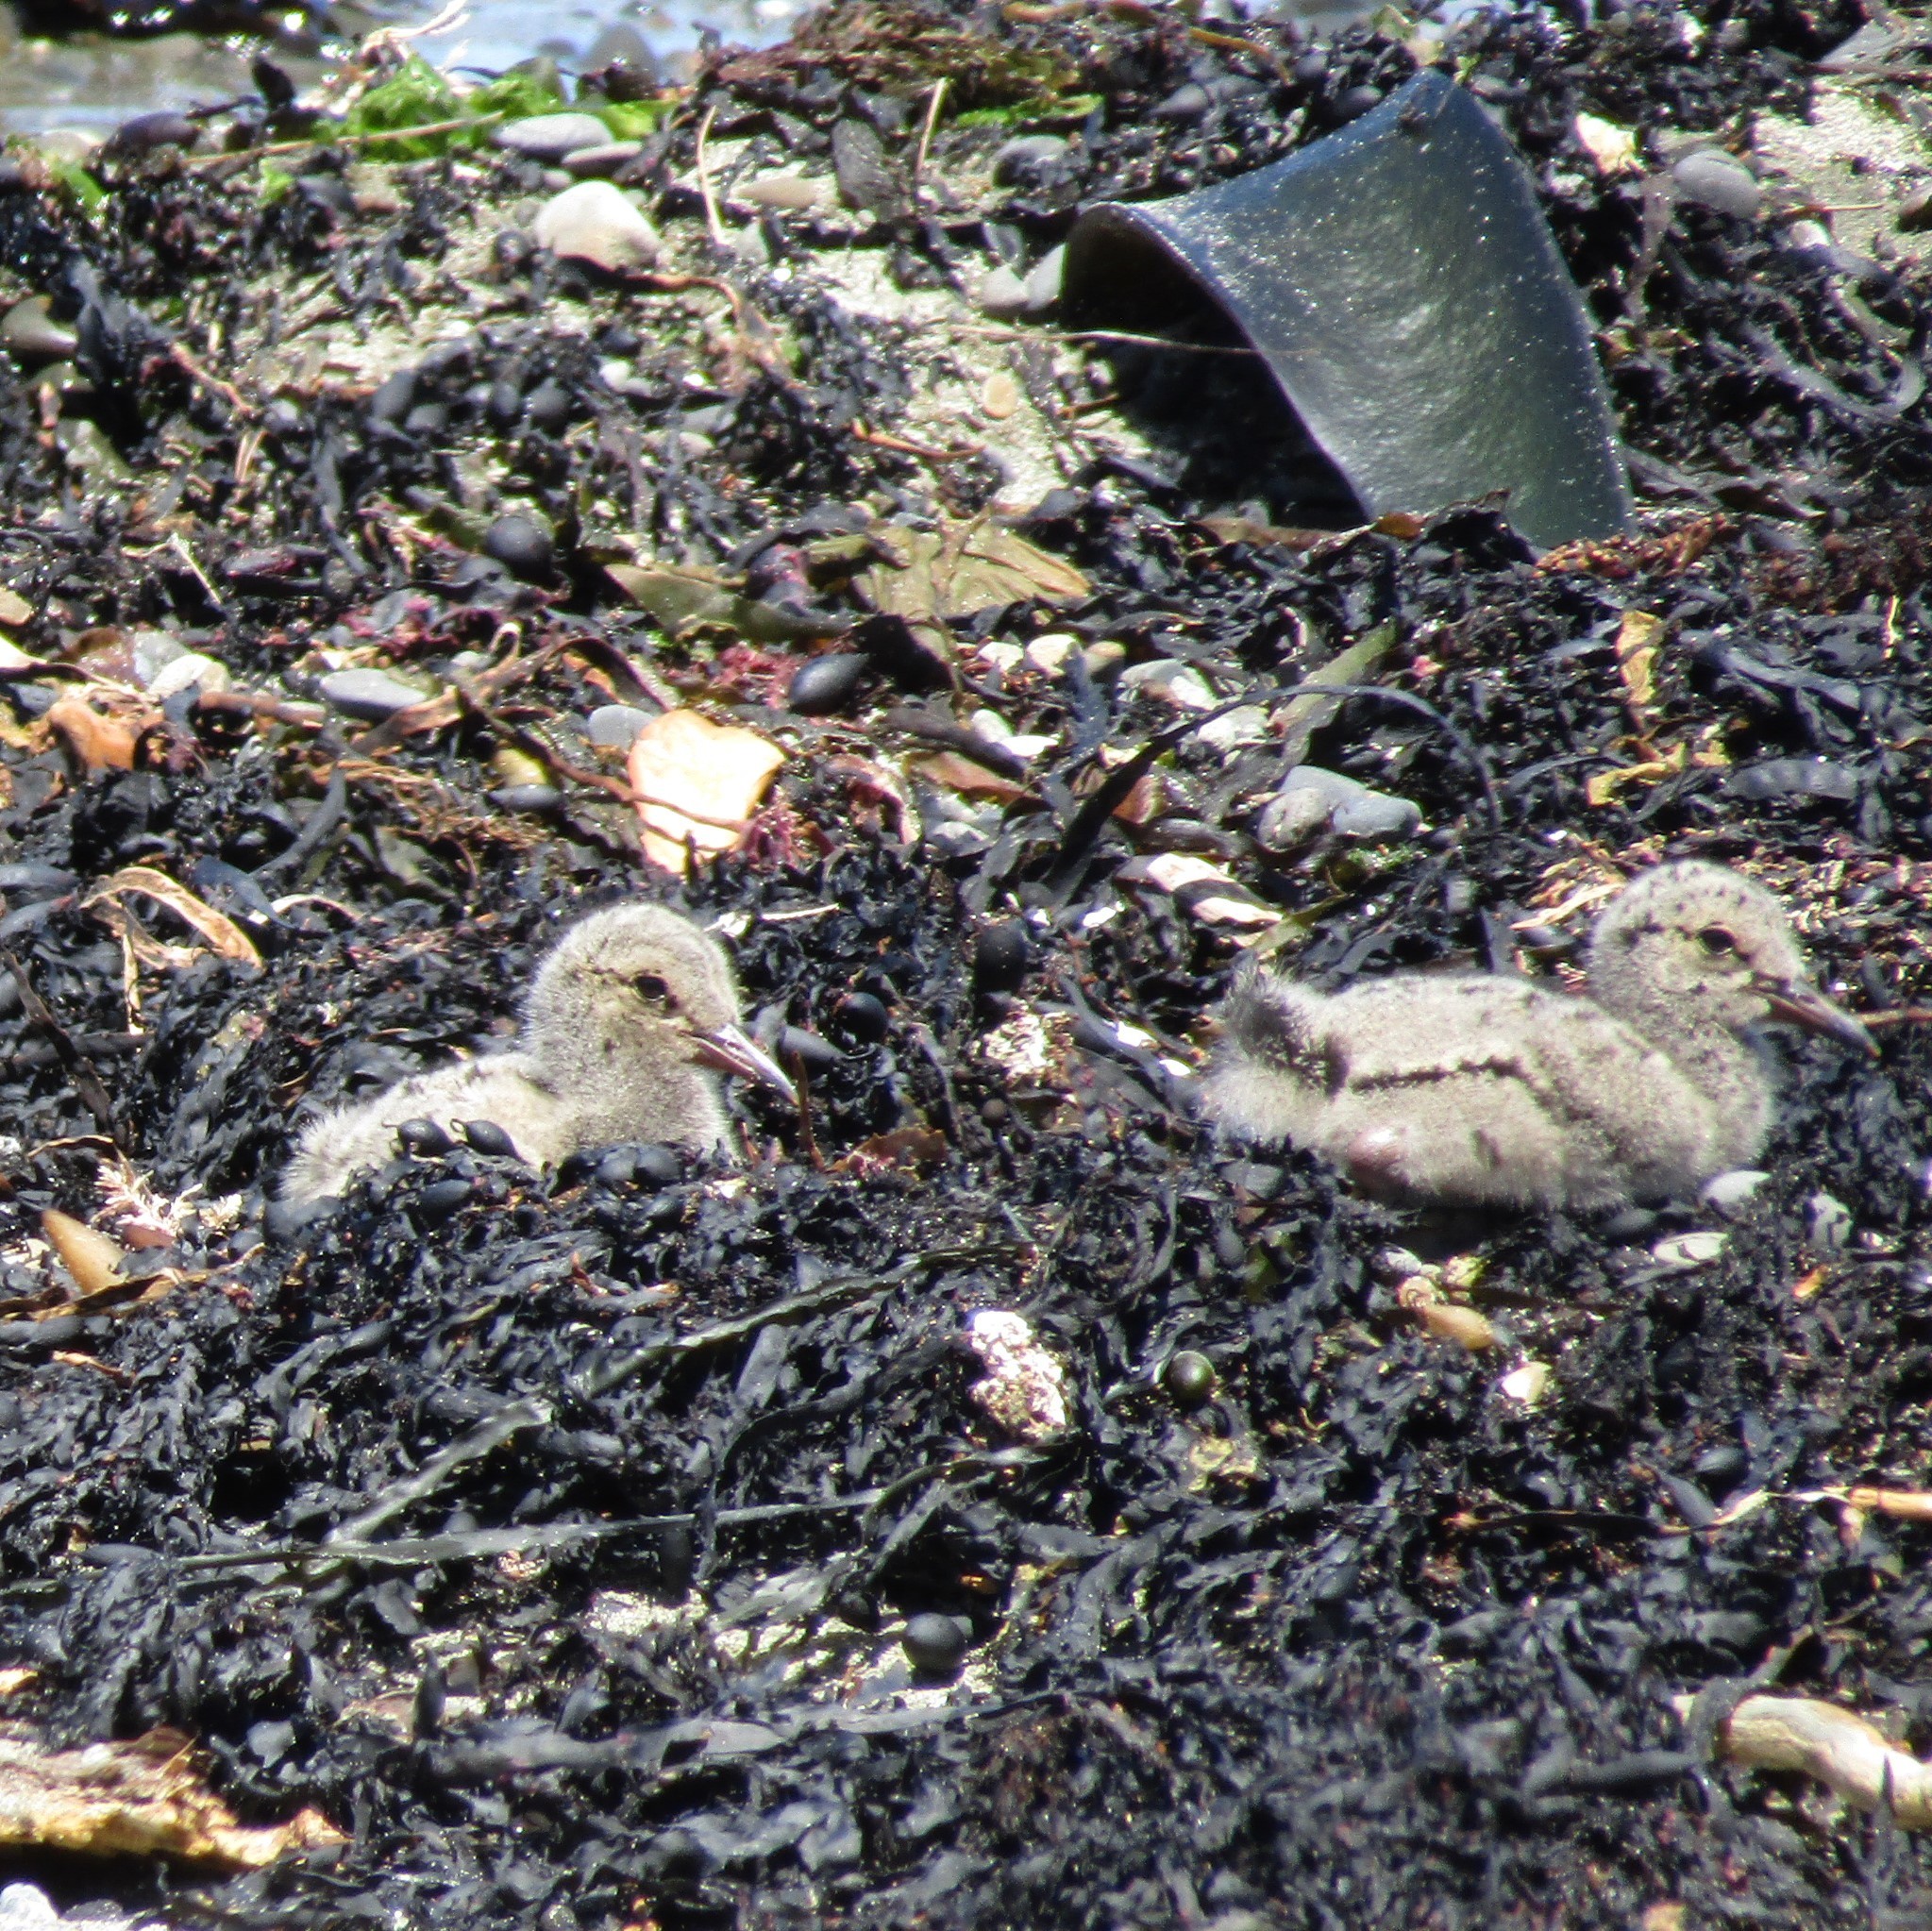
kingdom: Animalia
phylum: Chordata
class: Aves
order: Charadriiformes
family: Haematopodidae
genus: Haematopus
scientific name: Haematopus unicolor
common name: Variable oystercatcher
